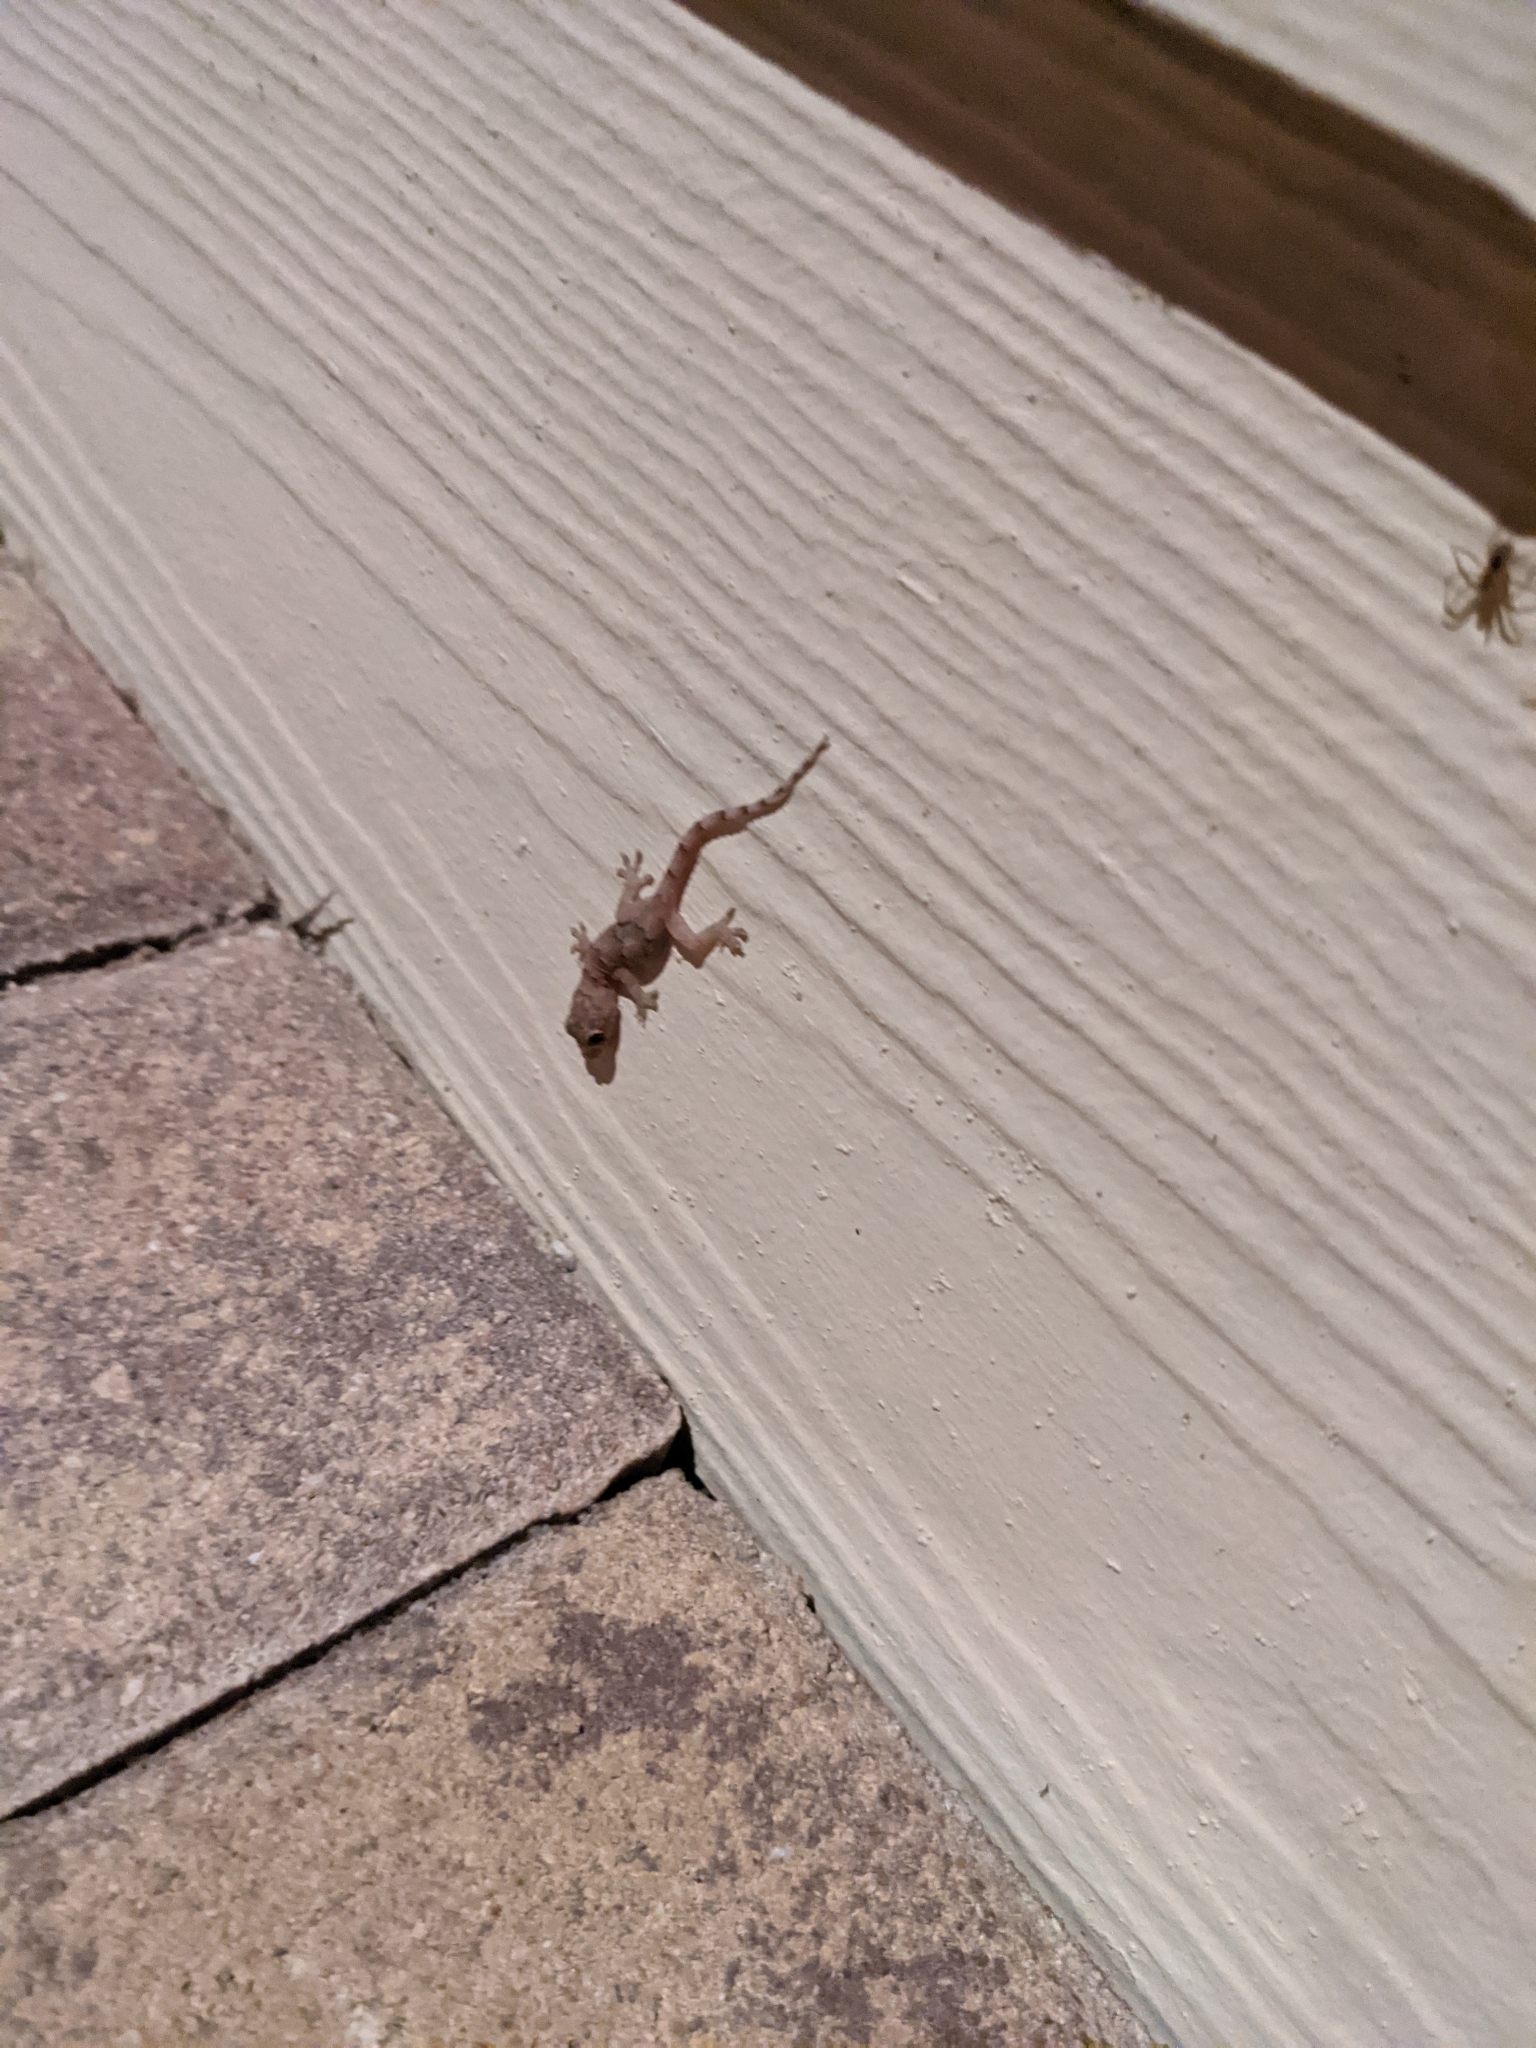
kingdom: Animalia
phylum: Chordata
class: Squamata
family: Gekkonidae
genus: Hemidactylus
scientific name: Hemidactylus mabouia
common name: House gecko
